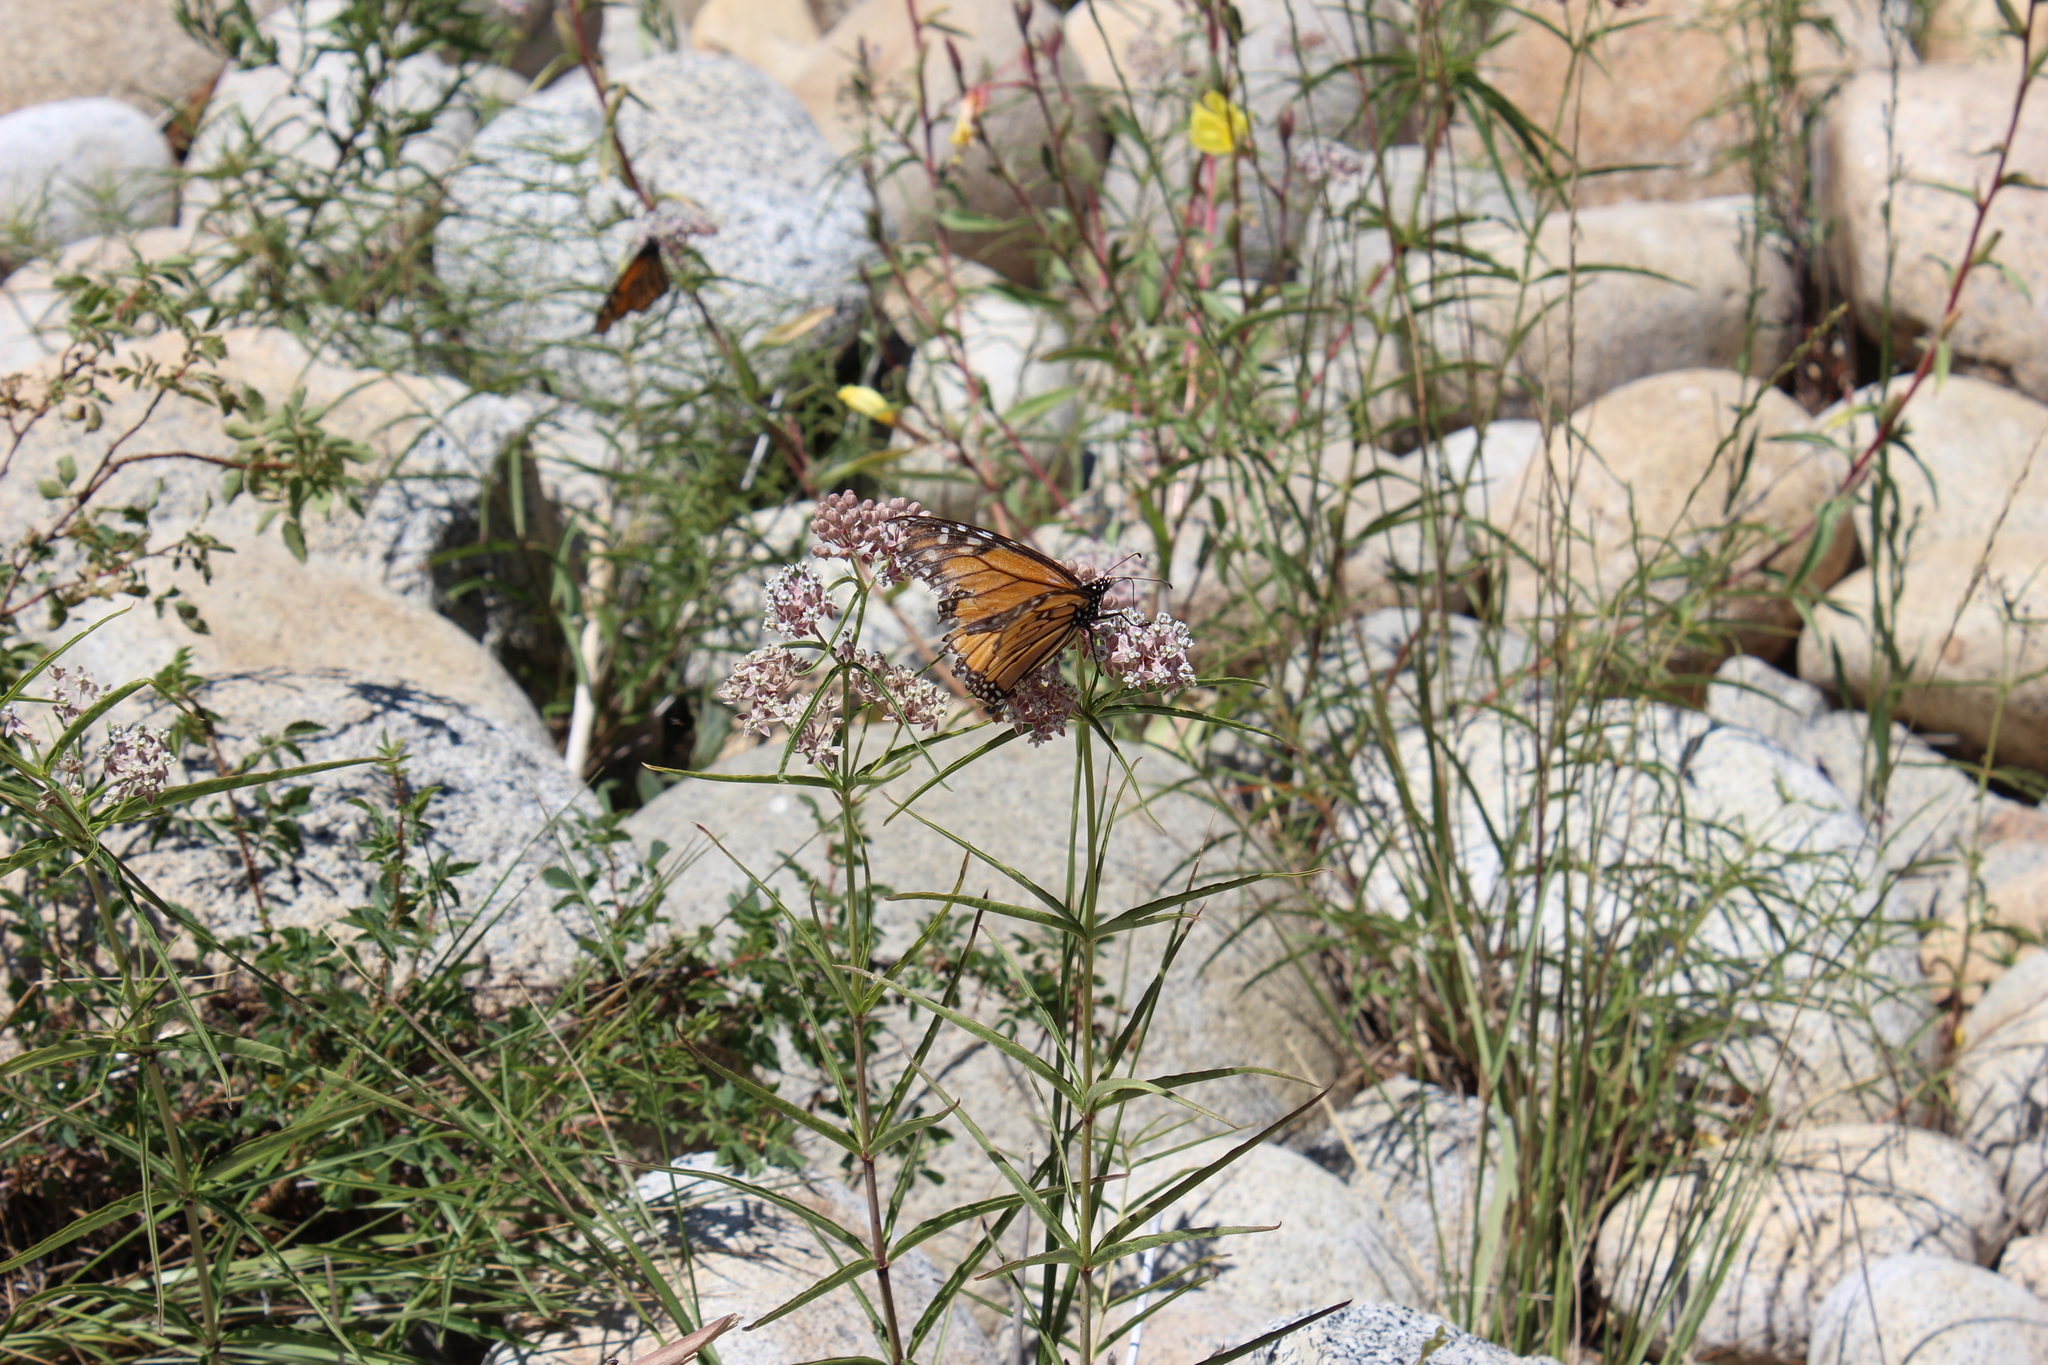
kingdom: Animalia
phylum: Arthropoda
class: Insecta
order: Lepidoptera
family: Nymphalidae
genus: Danaus
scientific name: Danaus plexippus
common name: Monarch
